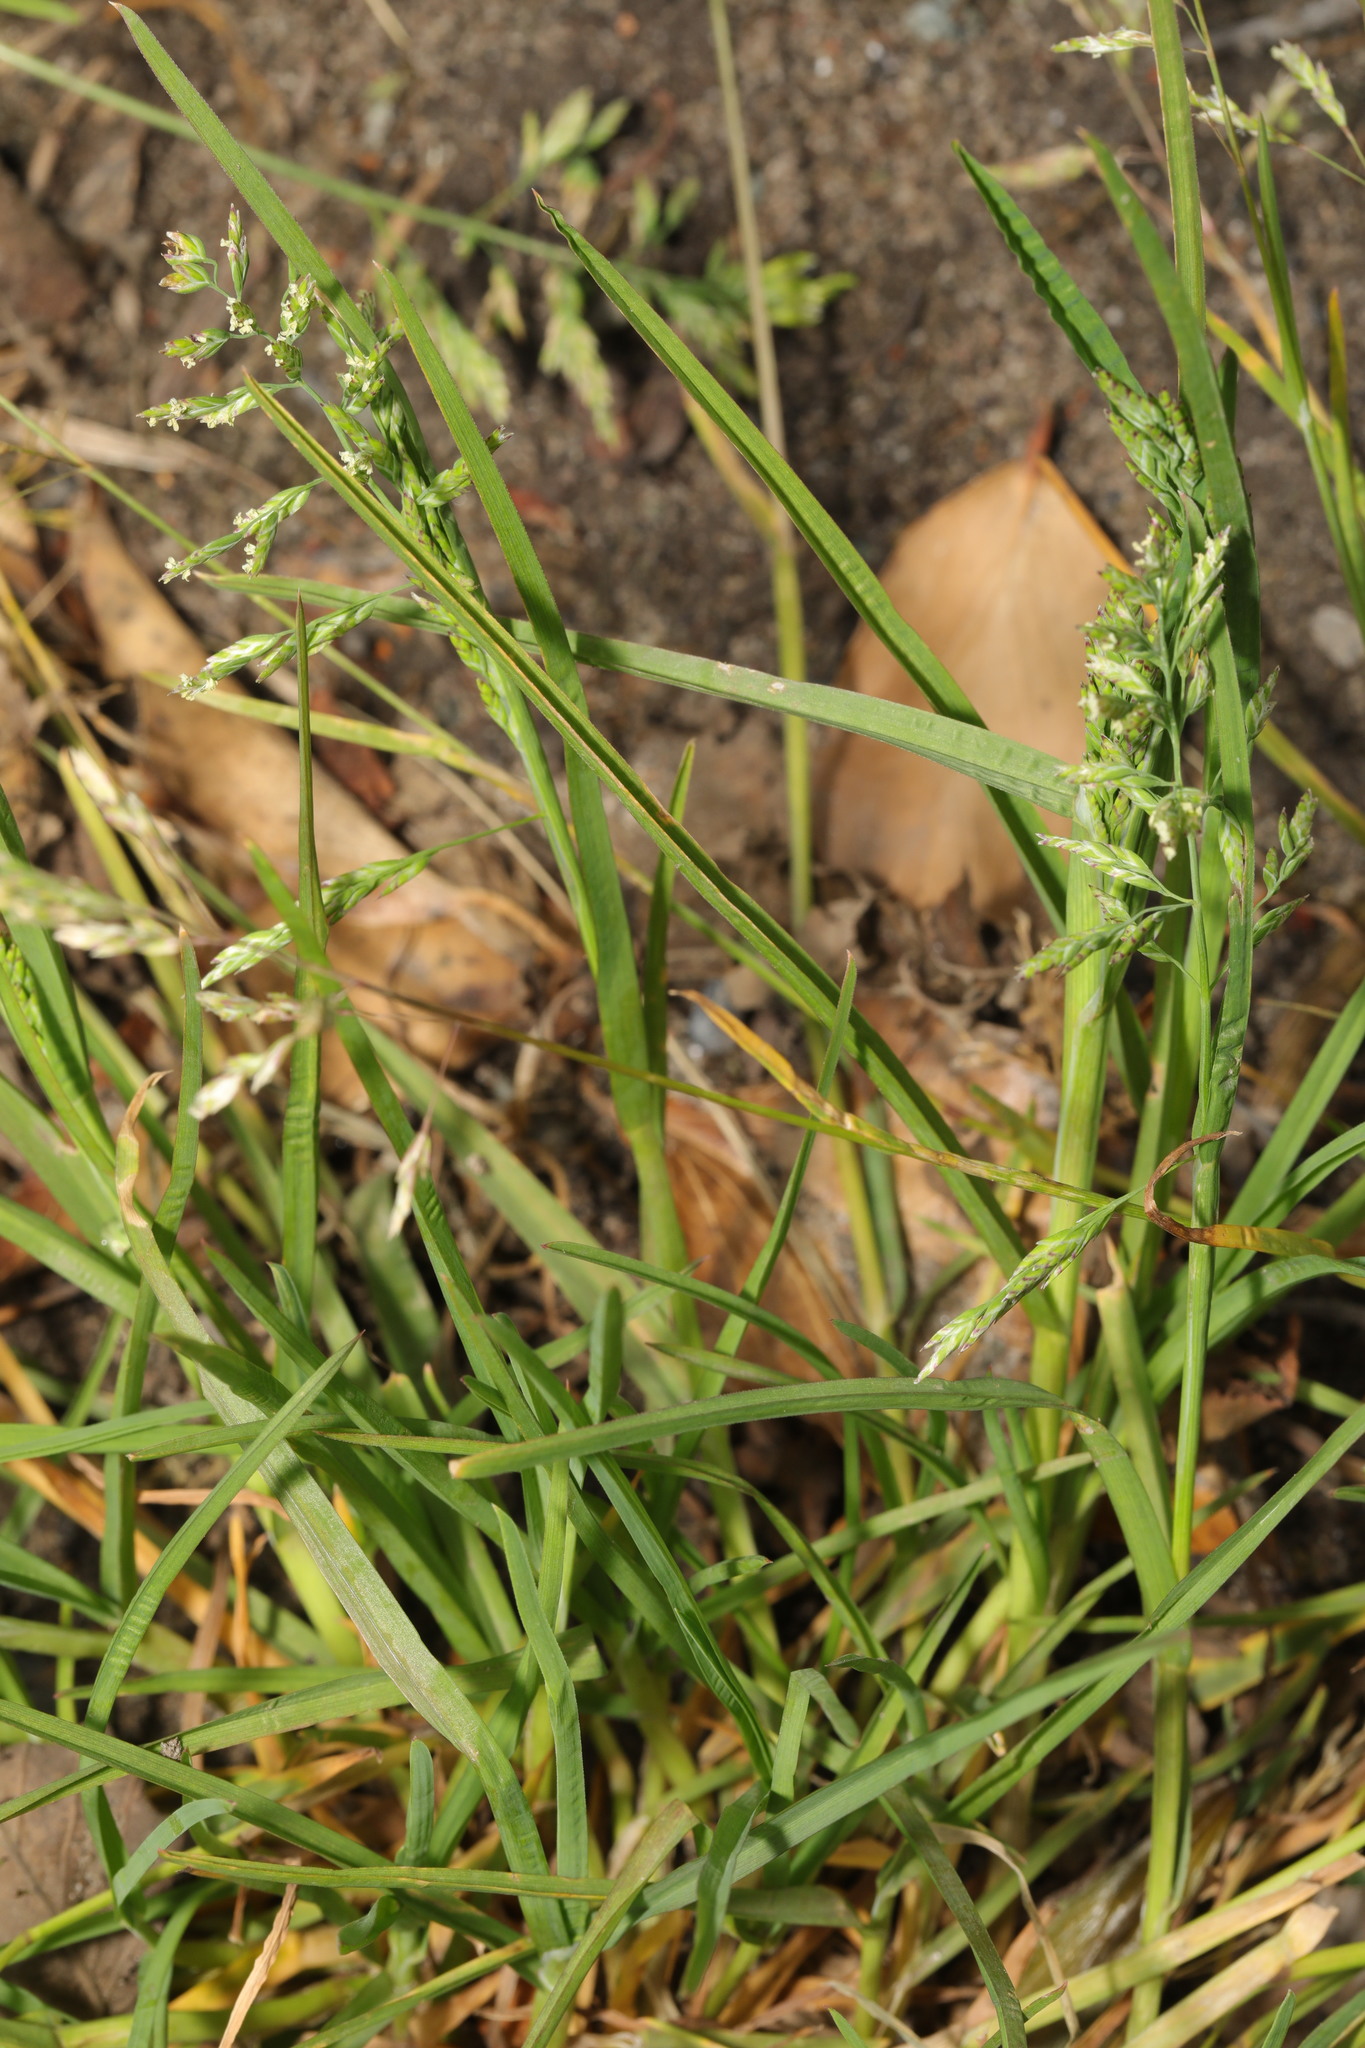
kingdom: Plantae
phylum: Tracheophyta
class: Liliopsida
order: Poales
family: Poaceae
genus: Poa
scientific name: Poa annua
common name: Annual bluegrass
